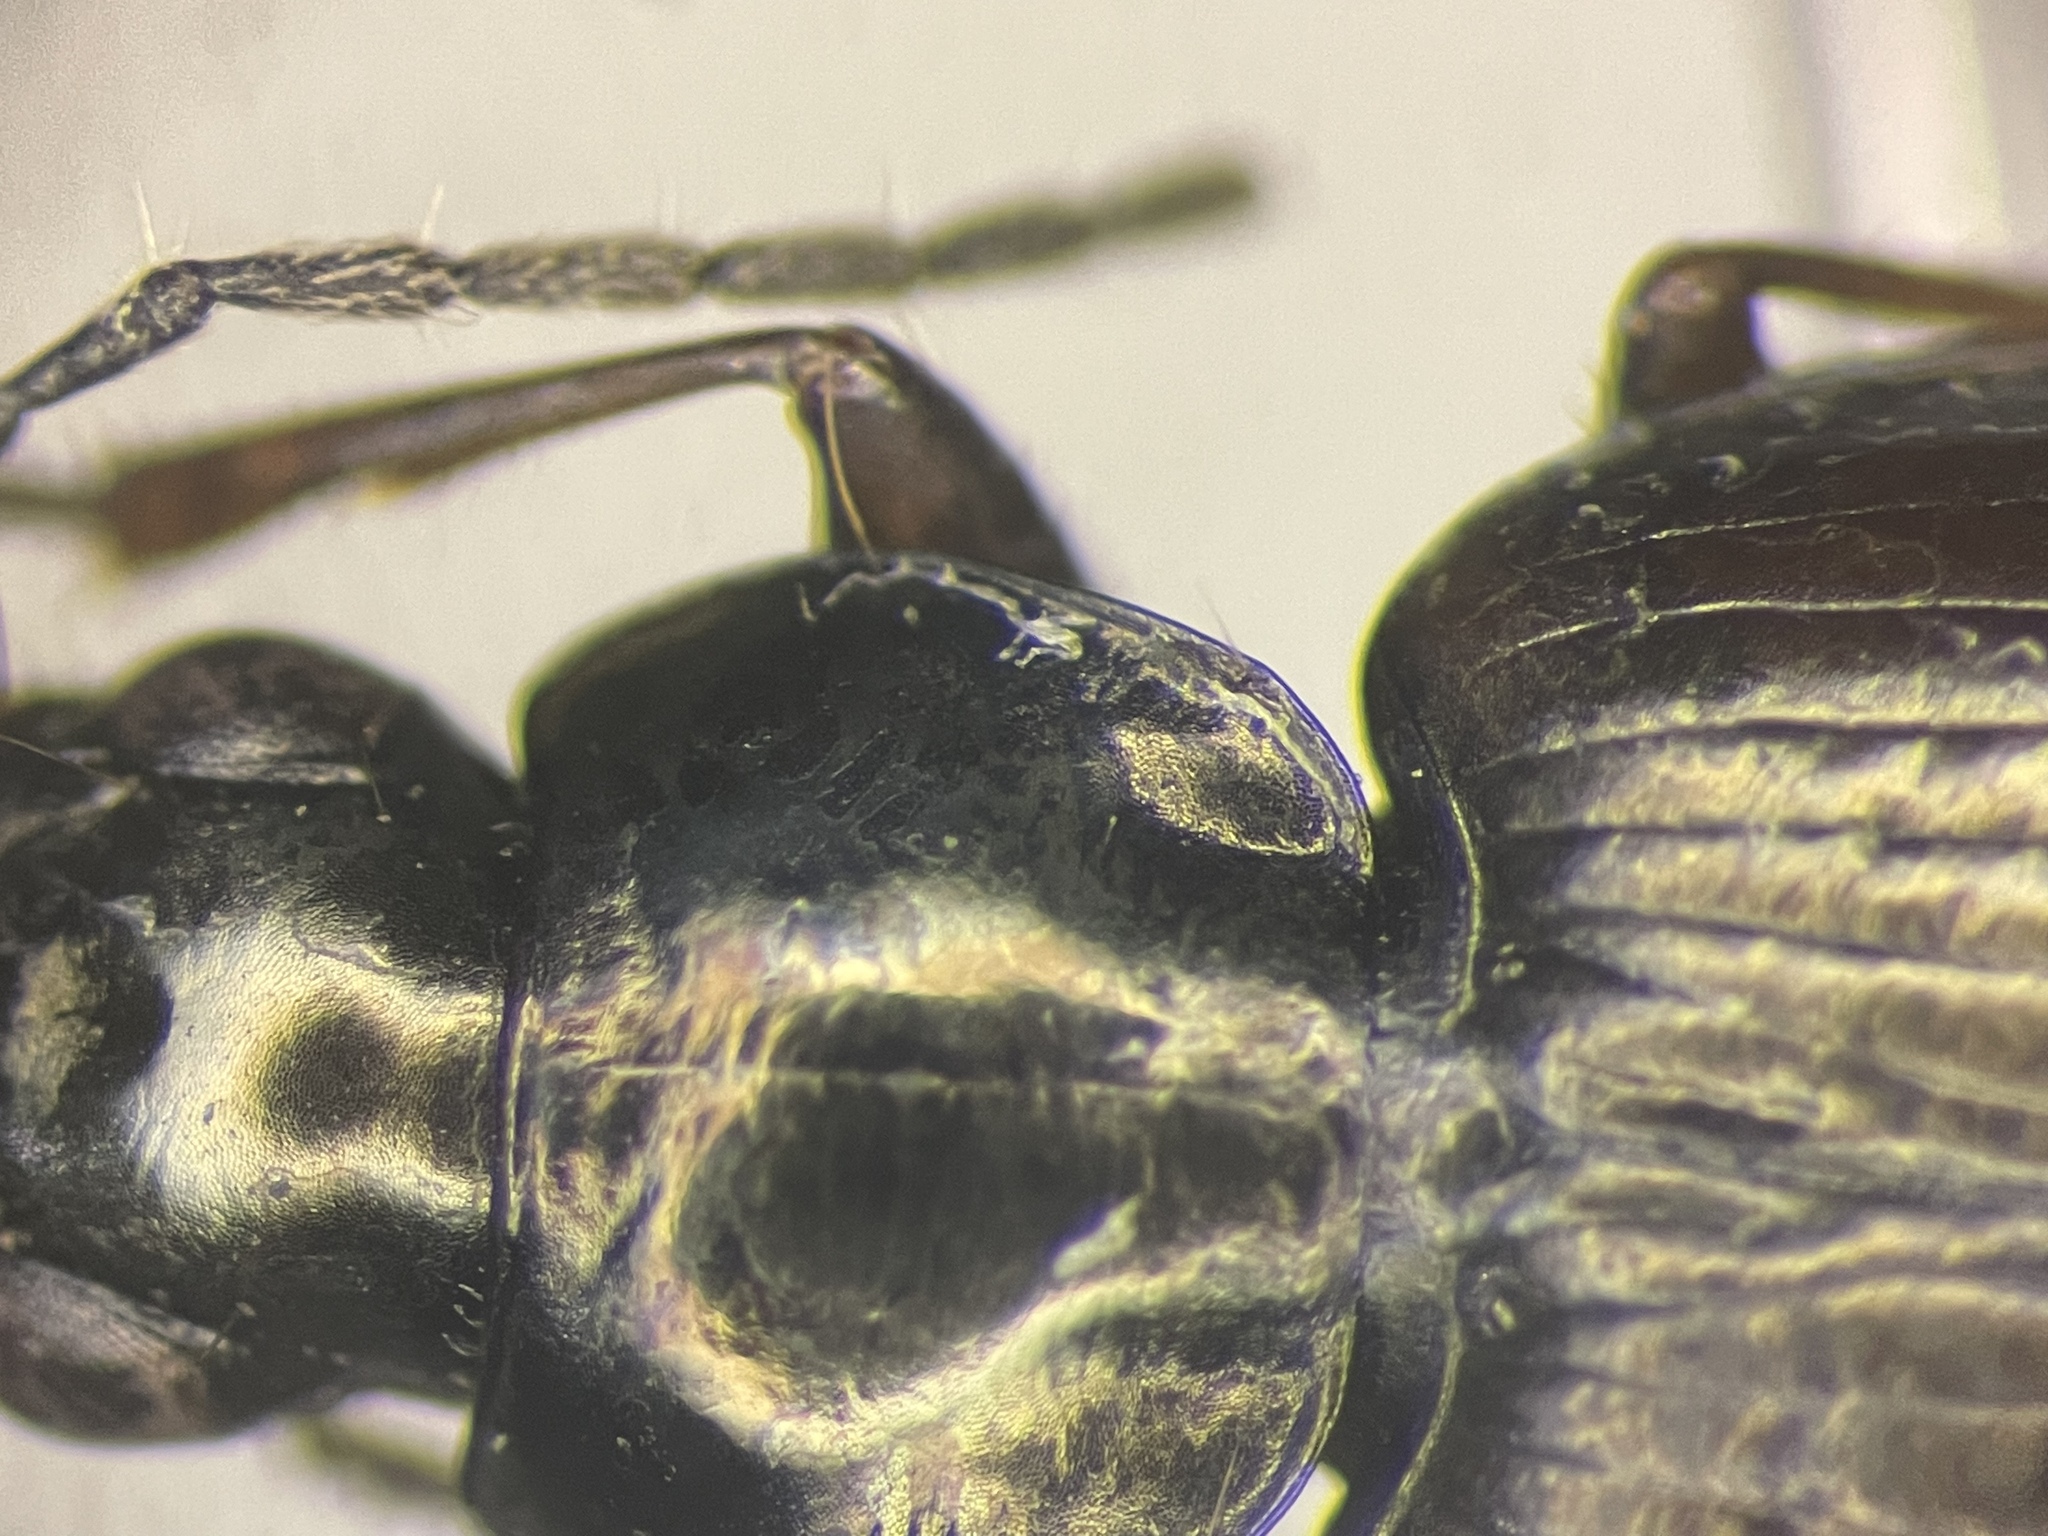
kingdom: Animalia
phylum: Arthropoda
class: Insecta
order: Coleoptera
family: Carabidae
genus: Agonum
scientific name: Agonum sordens
